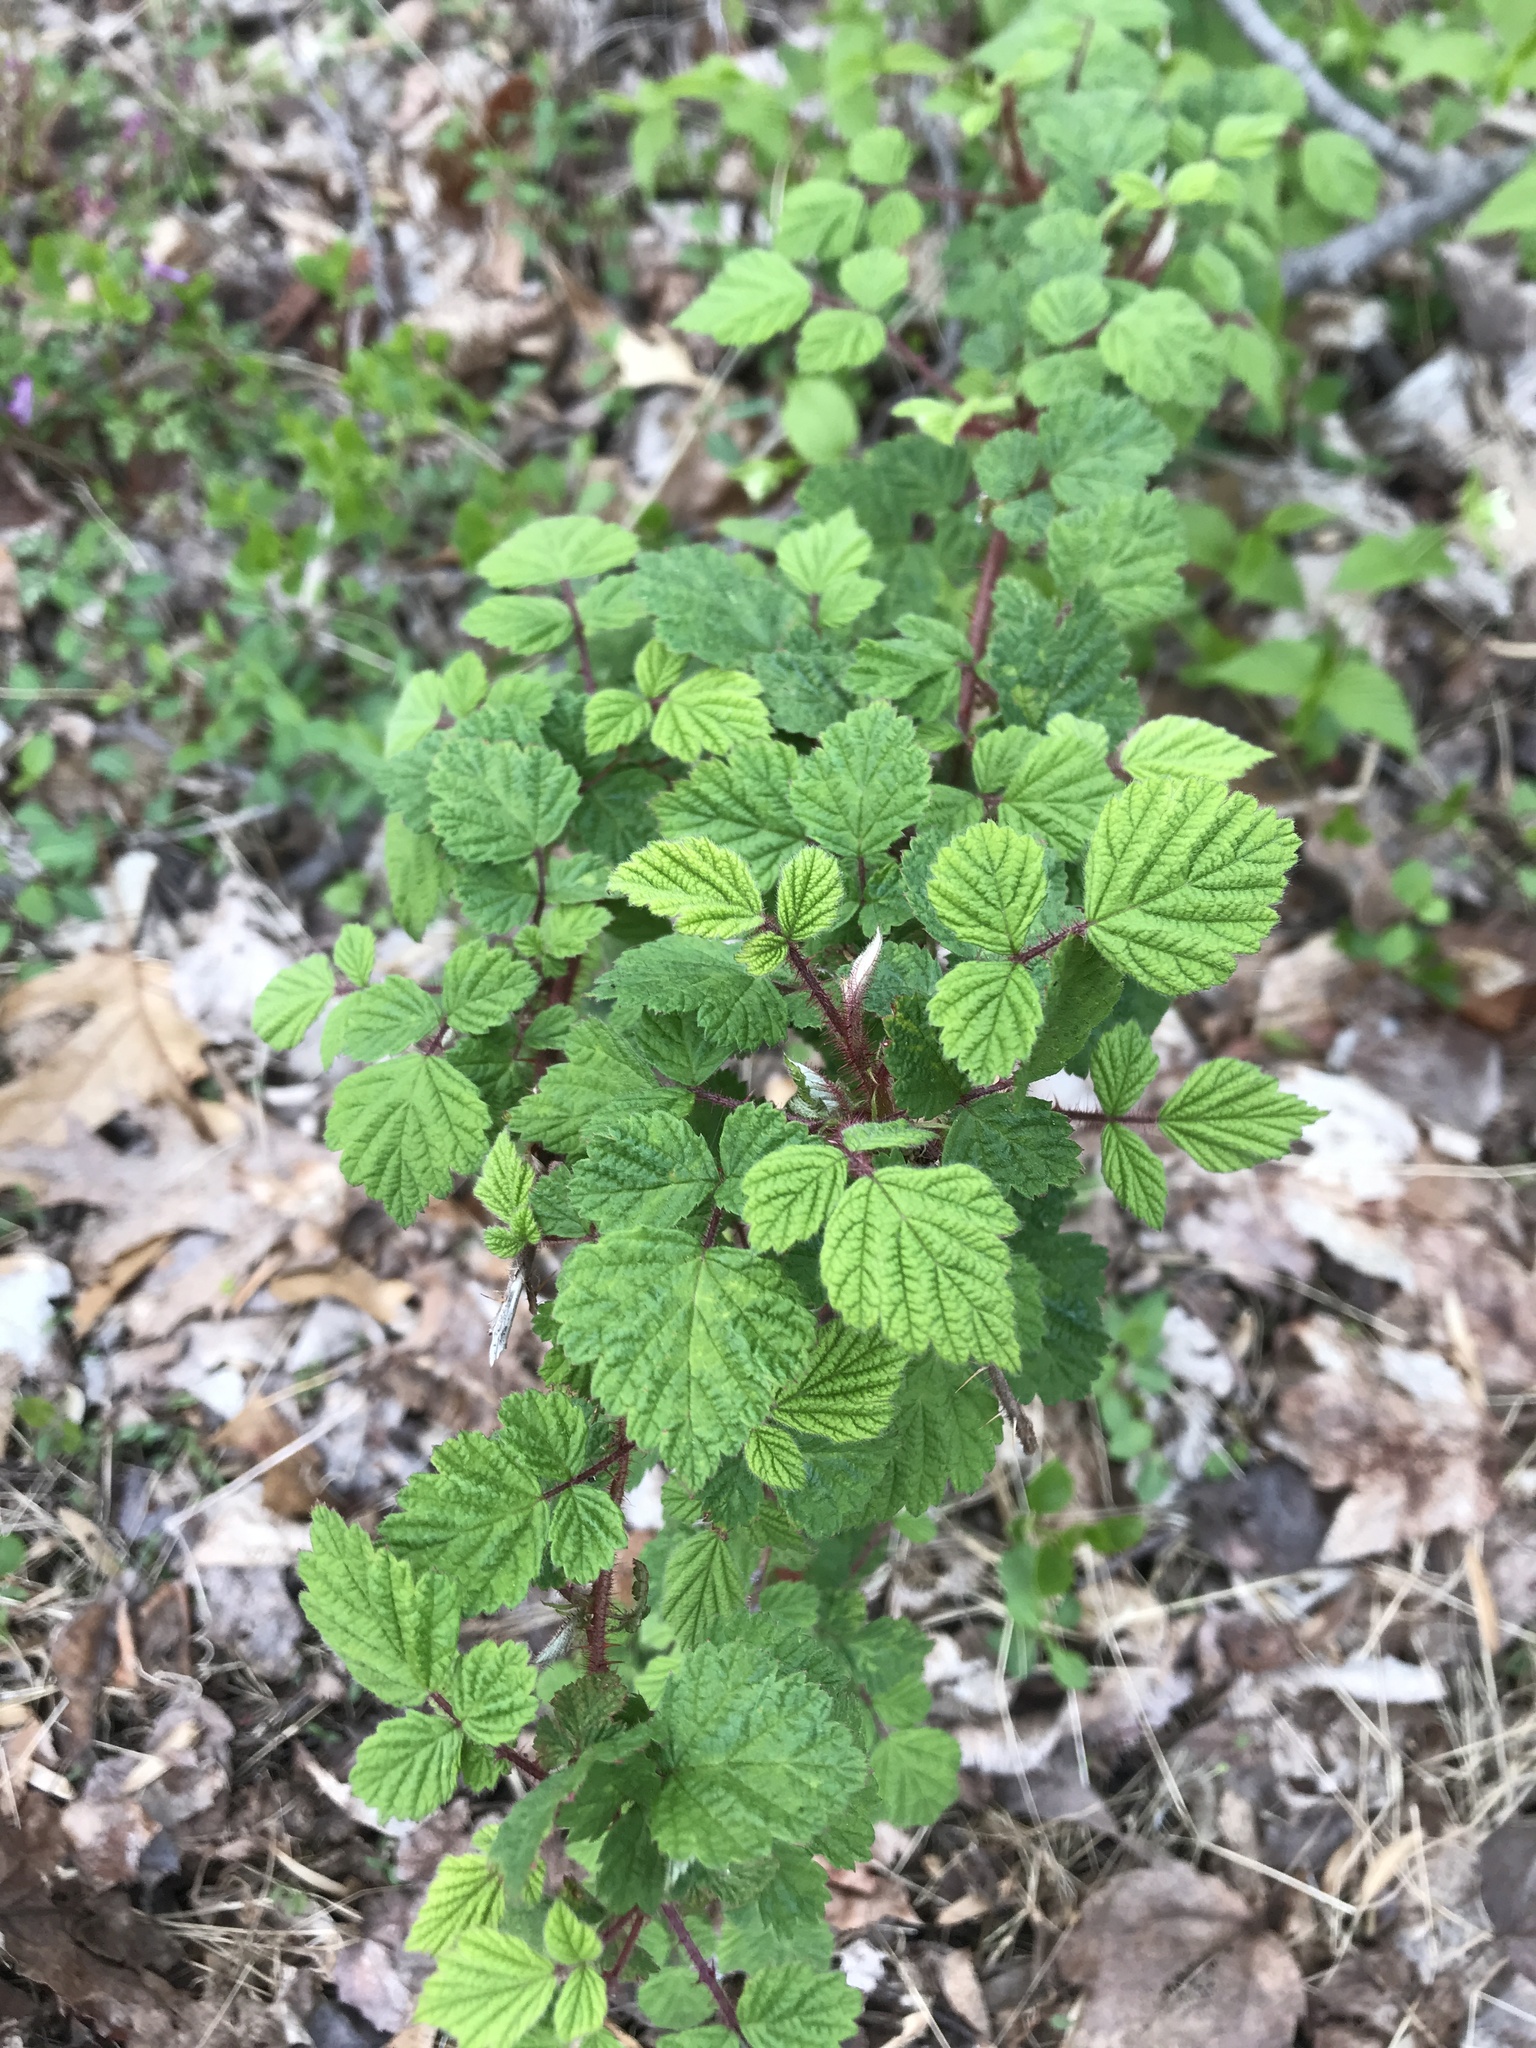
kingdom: Plantae
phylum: Tracheophyta
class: Magnoliopsida
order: Rosales
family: Rosaceae
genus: Rubus
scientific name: Rubus phoenicolasius
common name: Japanese wineberry
